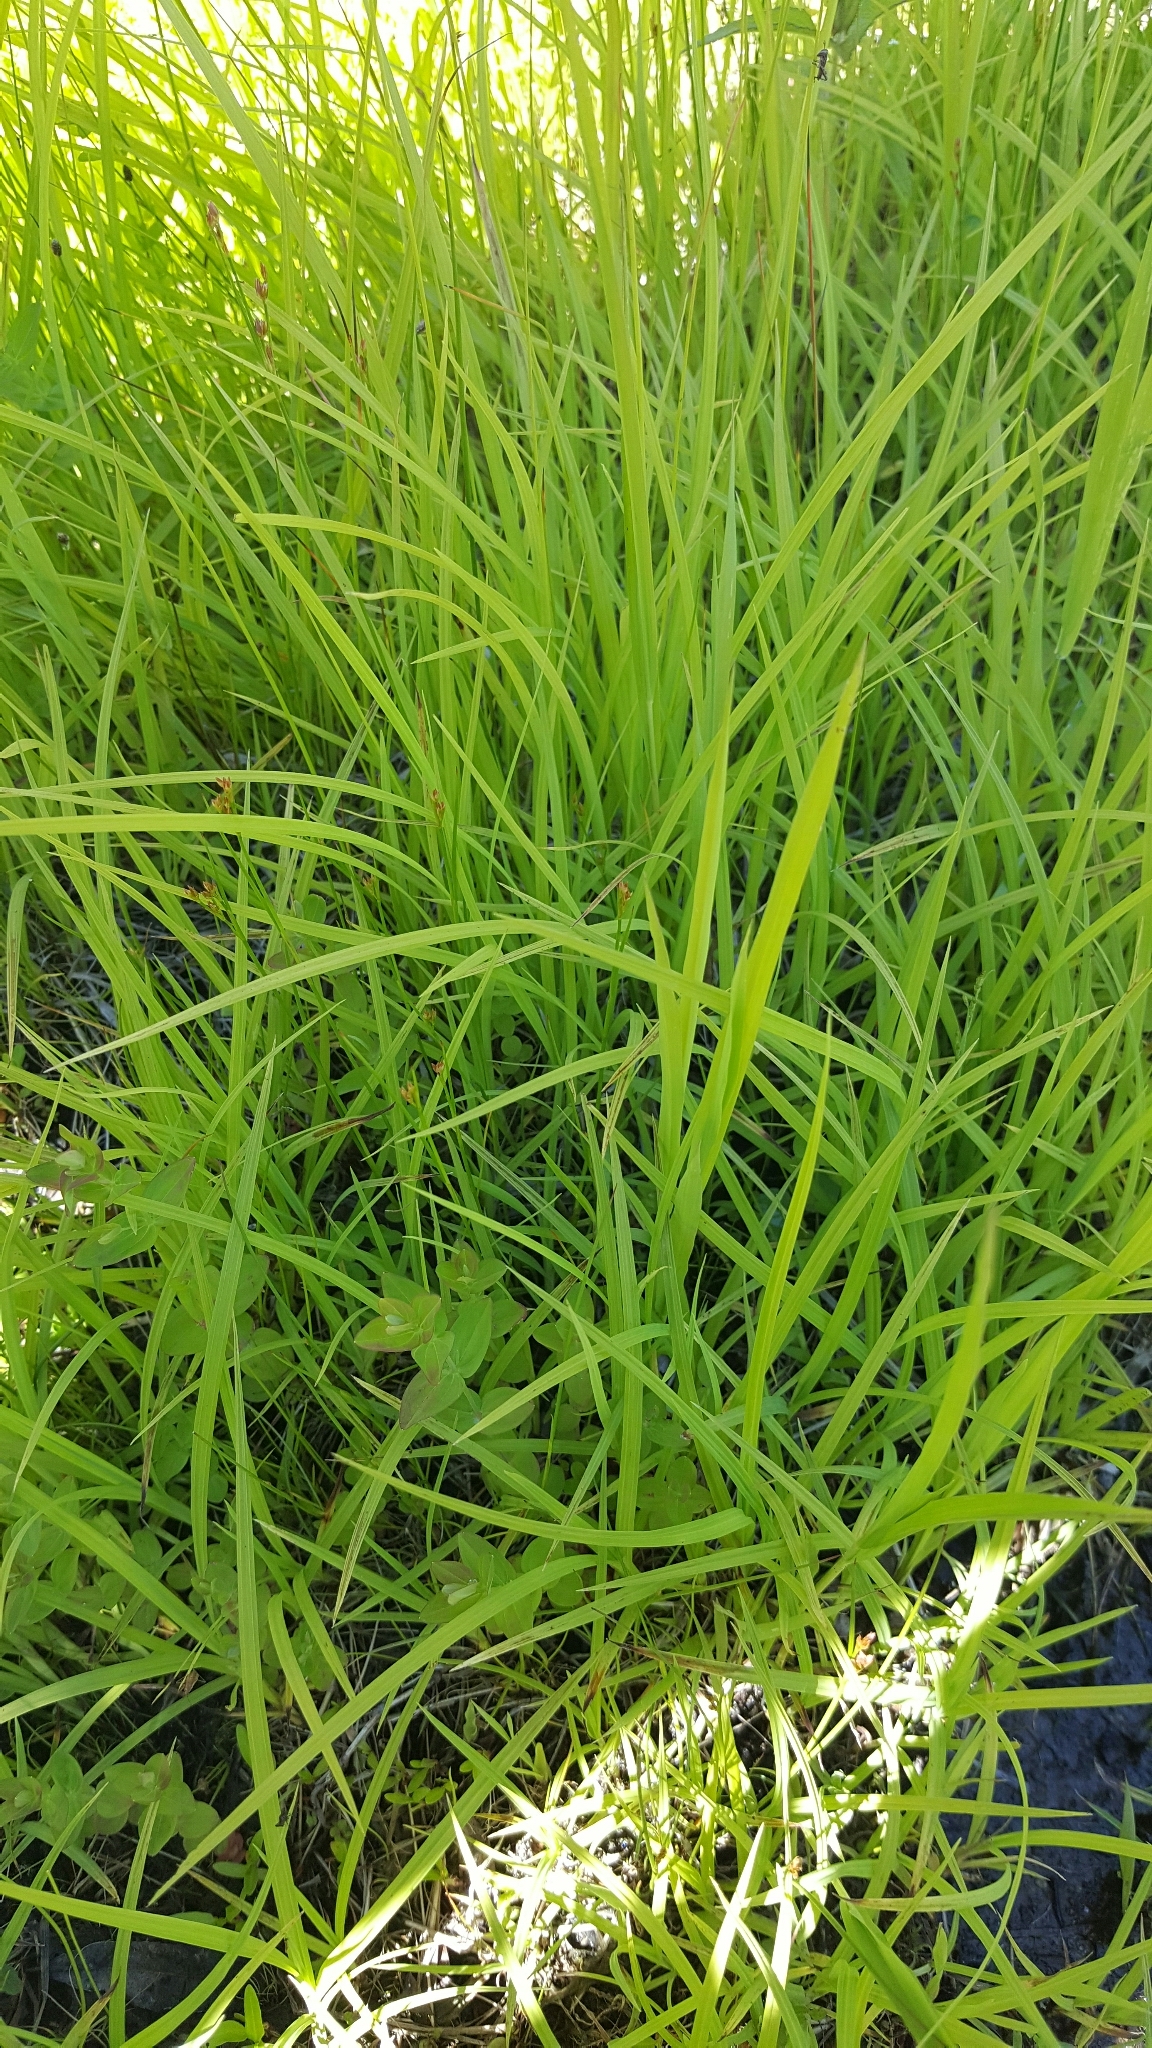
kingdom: Plantae
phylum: Tracheophyta
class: Liliopsida
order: Poales
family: Poaceae
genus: Leersia
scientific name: Leersia oryzoides
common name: Cut-grass
